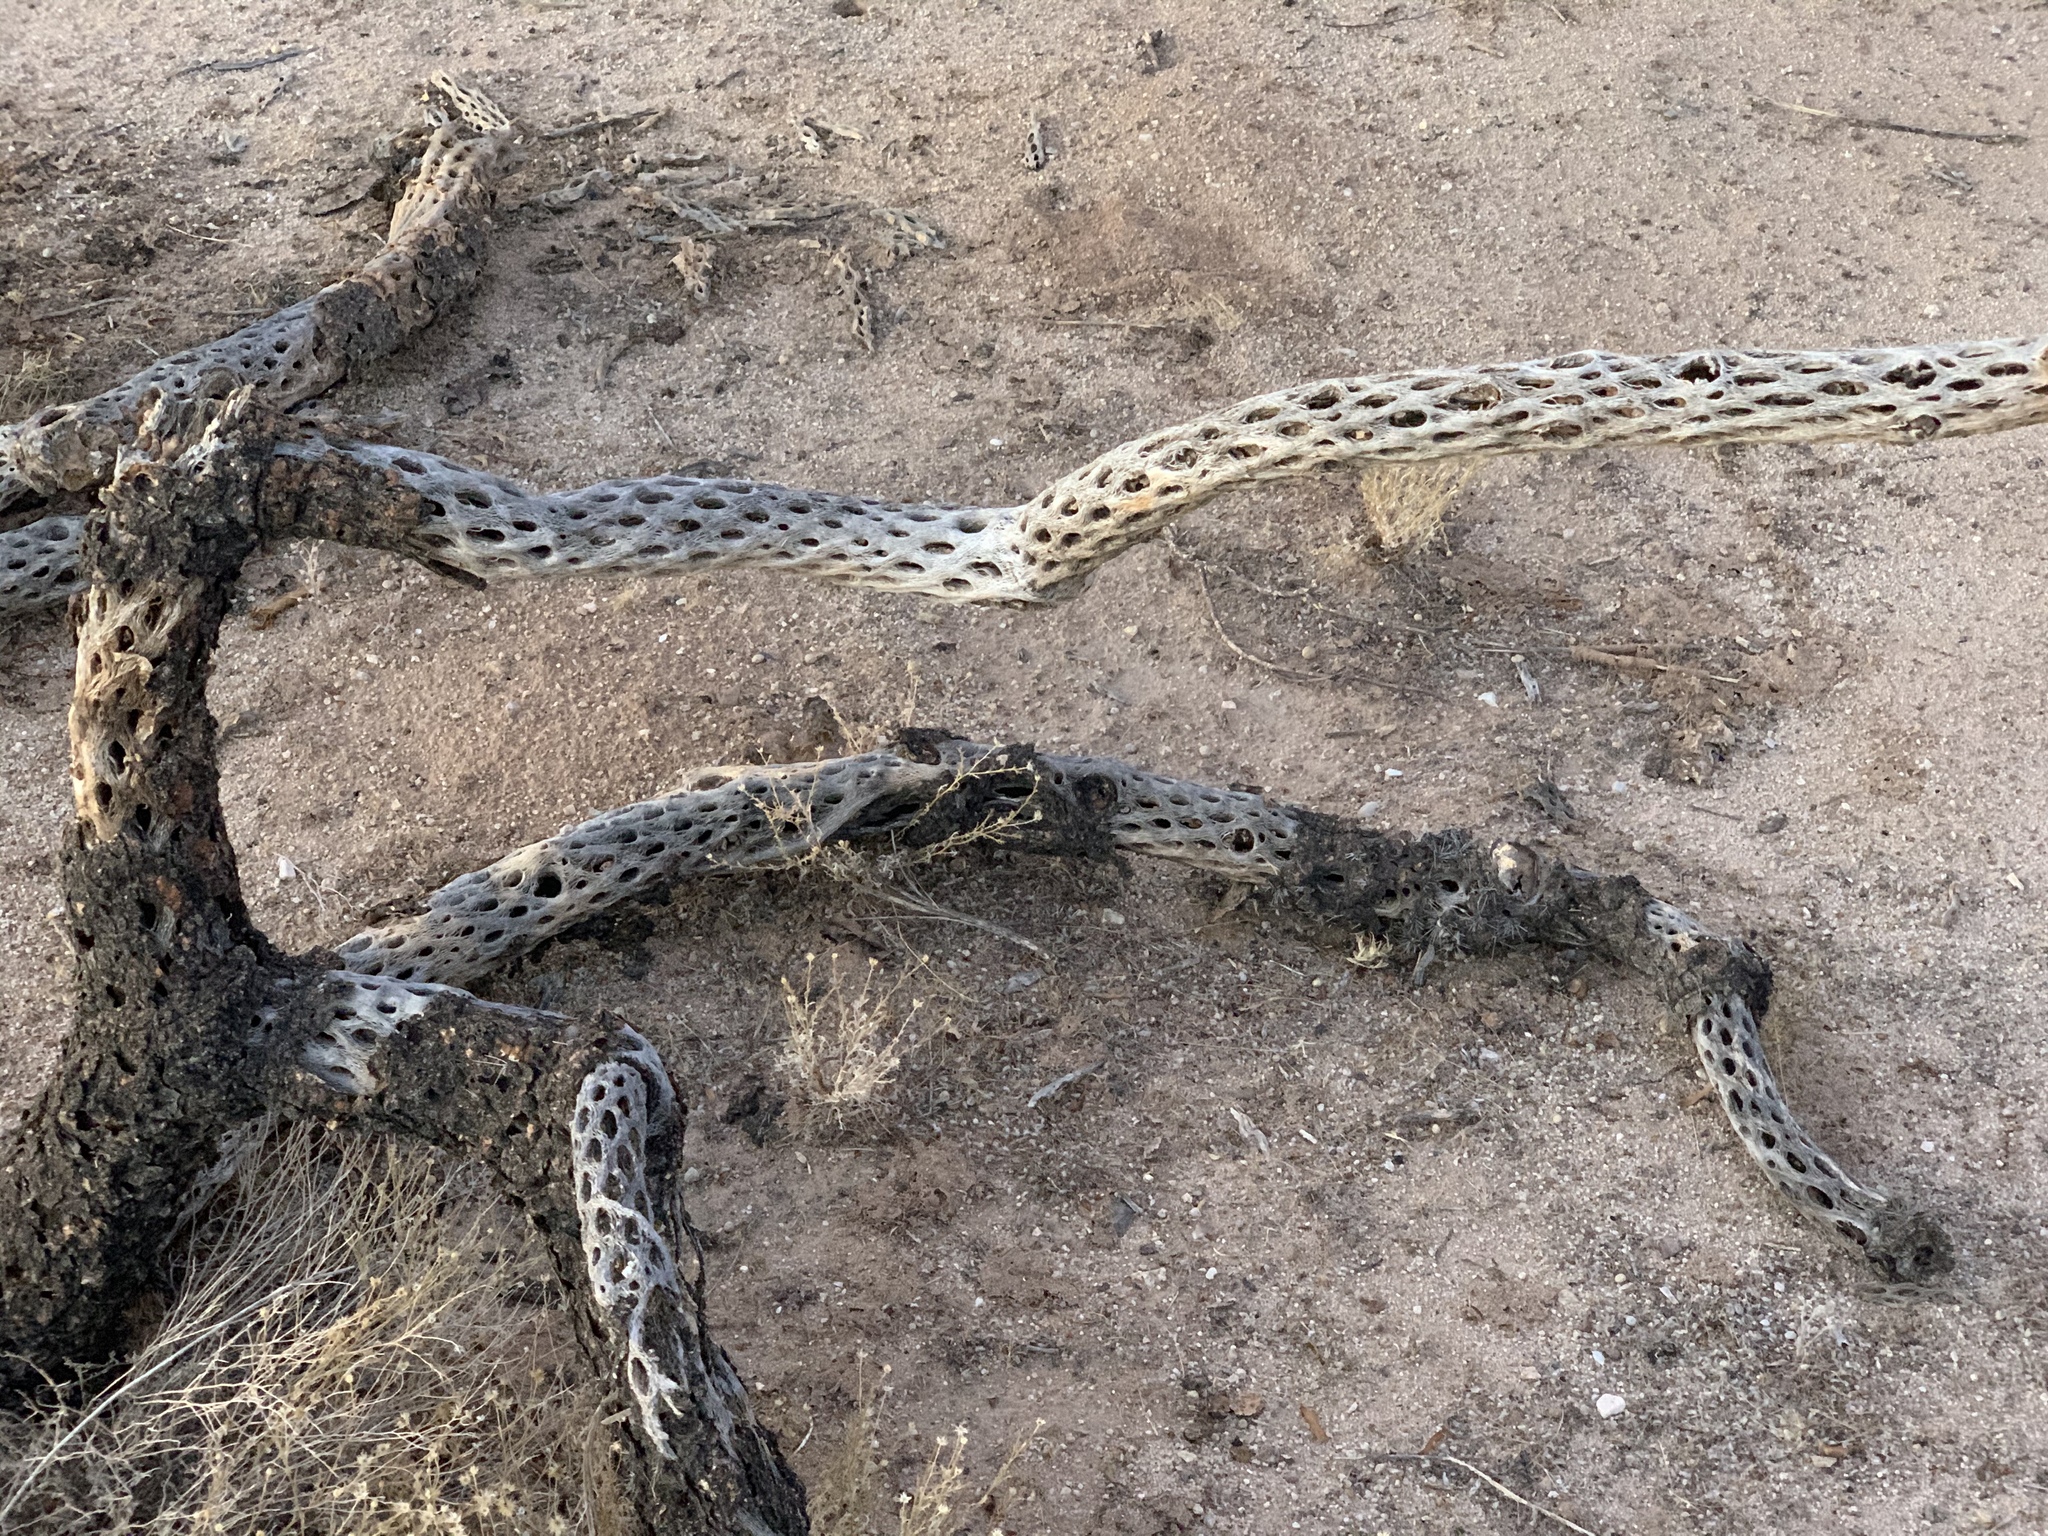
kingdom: Plantae
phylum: Tracheophyta
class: Magnoliopsida
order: Caryophyllales
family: Cactaceae
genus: Cylindropuntia
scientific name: Cylindropuntia
